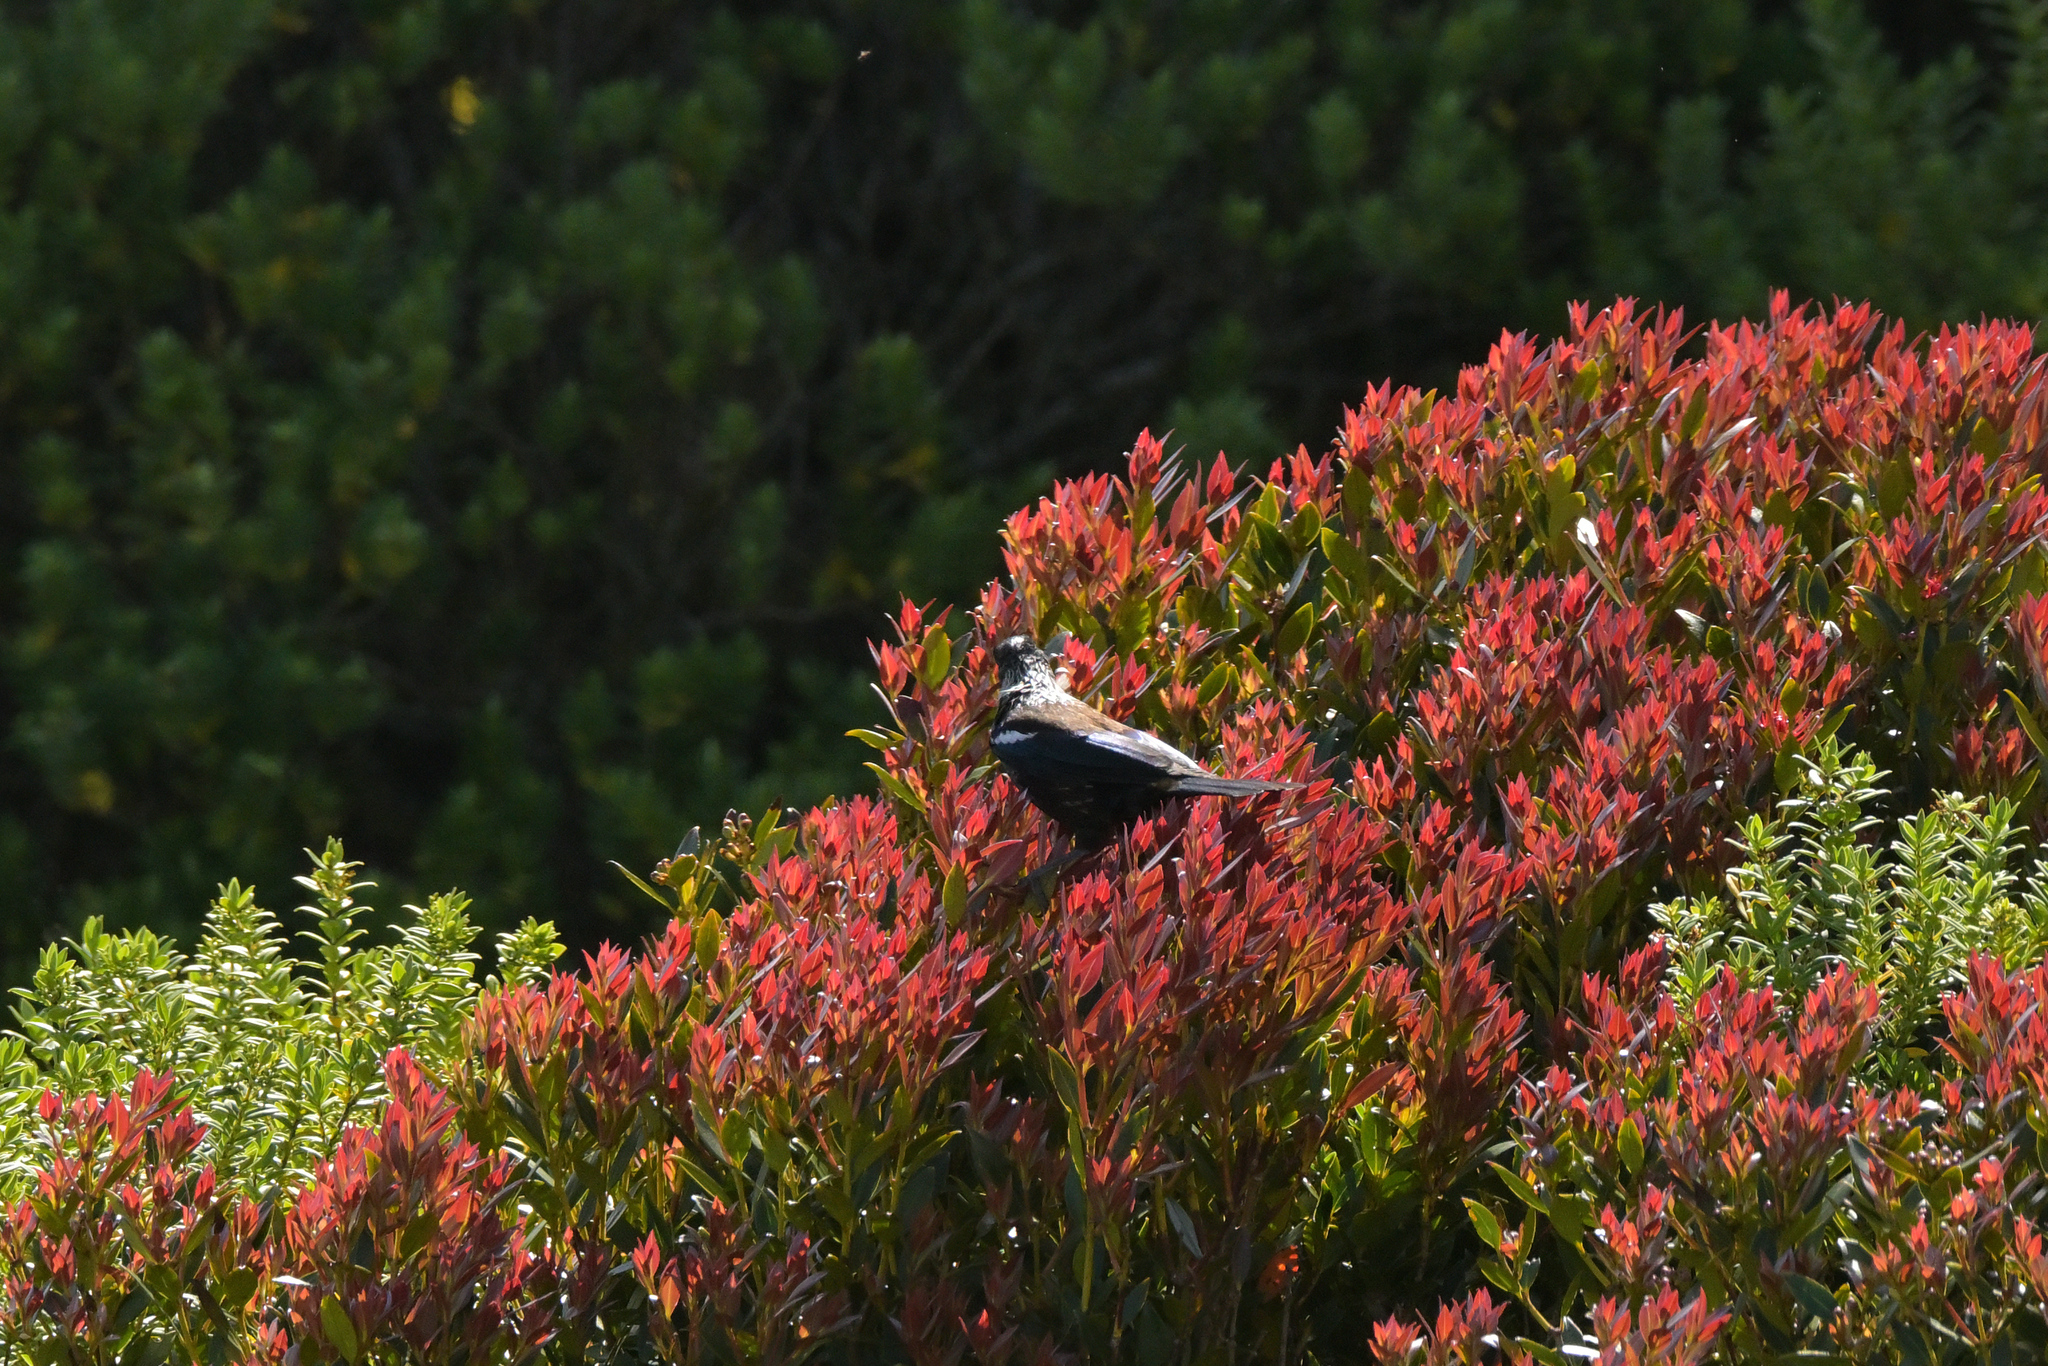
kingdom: Animalia
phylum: Chordata
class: Aves
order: Passeriformes
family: Meliphagidae
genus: Prosthemadera
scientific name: Prosthemadera novaeseelandiae
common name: Tui
